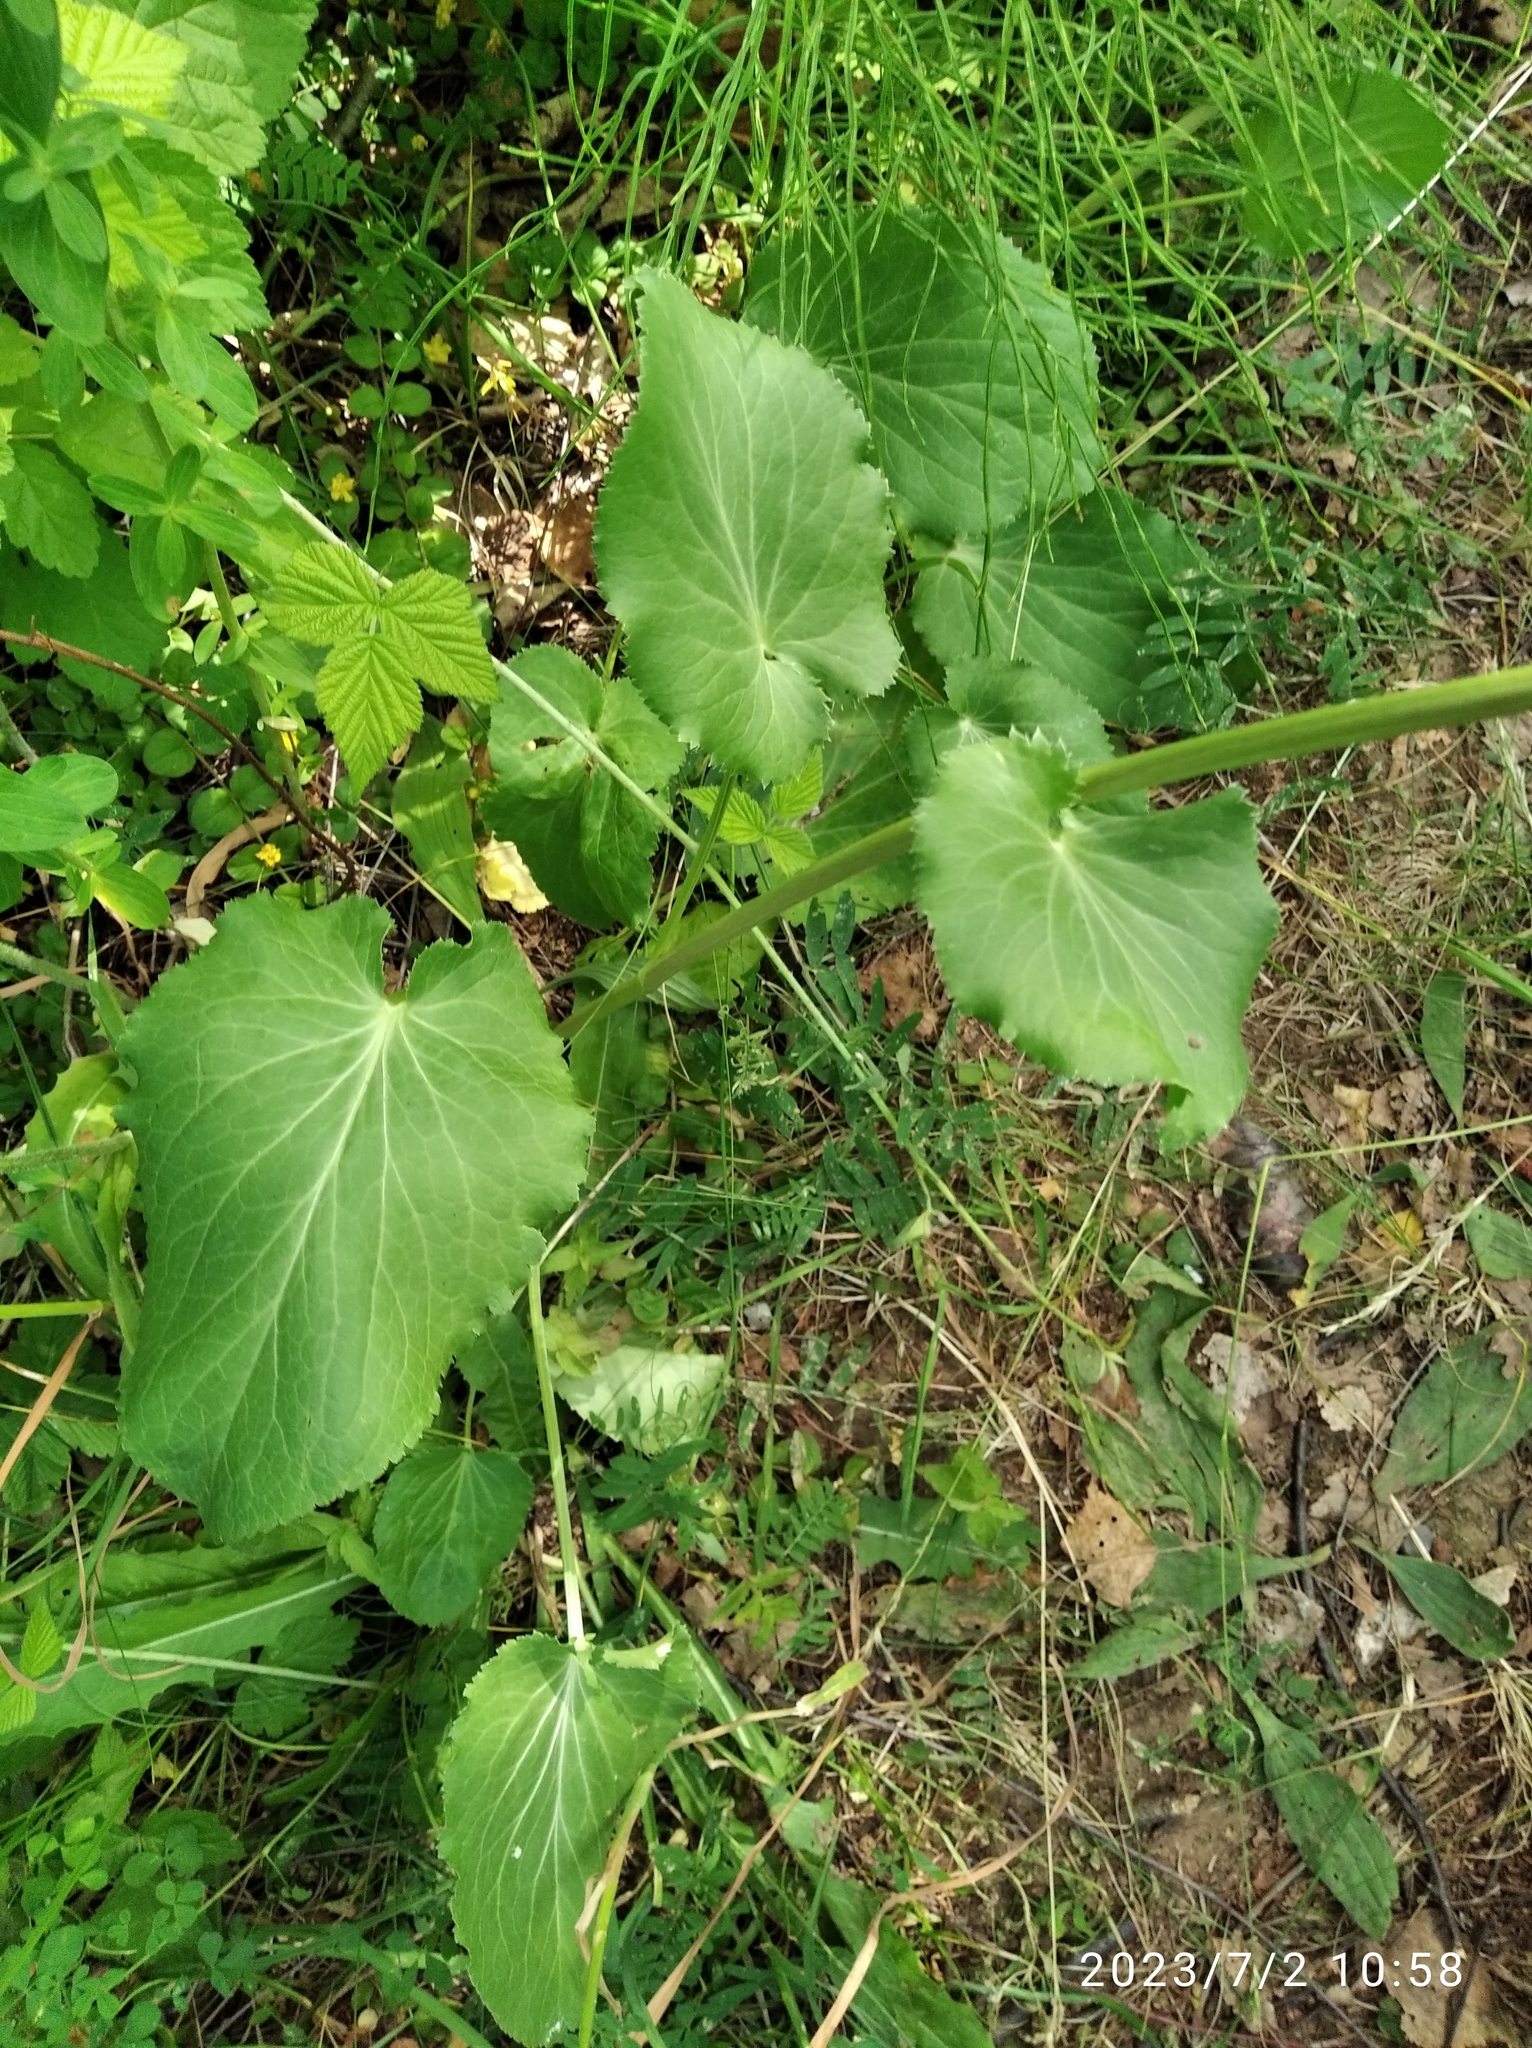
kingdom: Plantae
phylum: Tracheophyta
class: Magnoliopsida
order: Apiales
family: Apiaceae
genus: Eryngium
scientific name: Eryngium planum
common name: Blue eryngo
